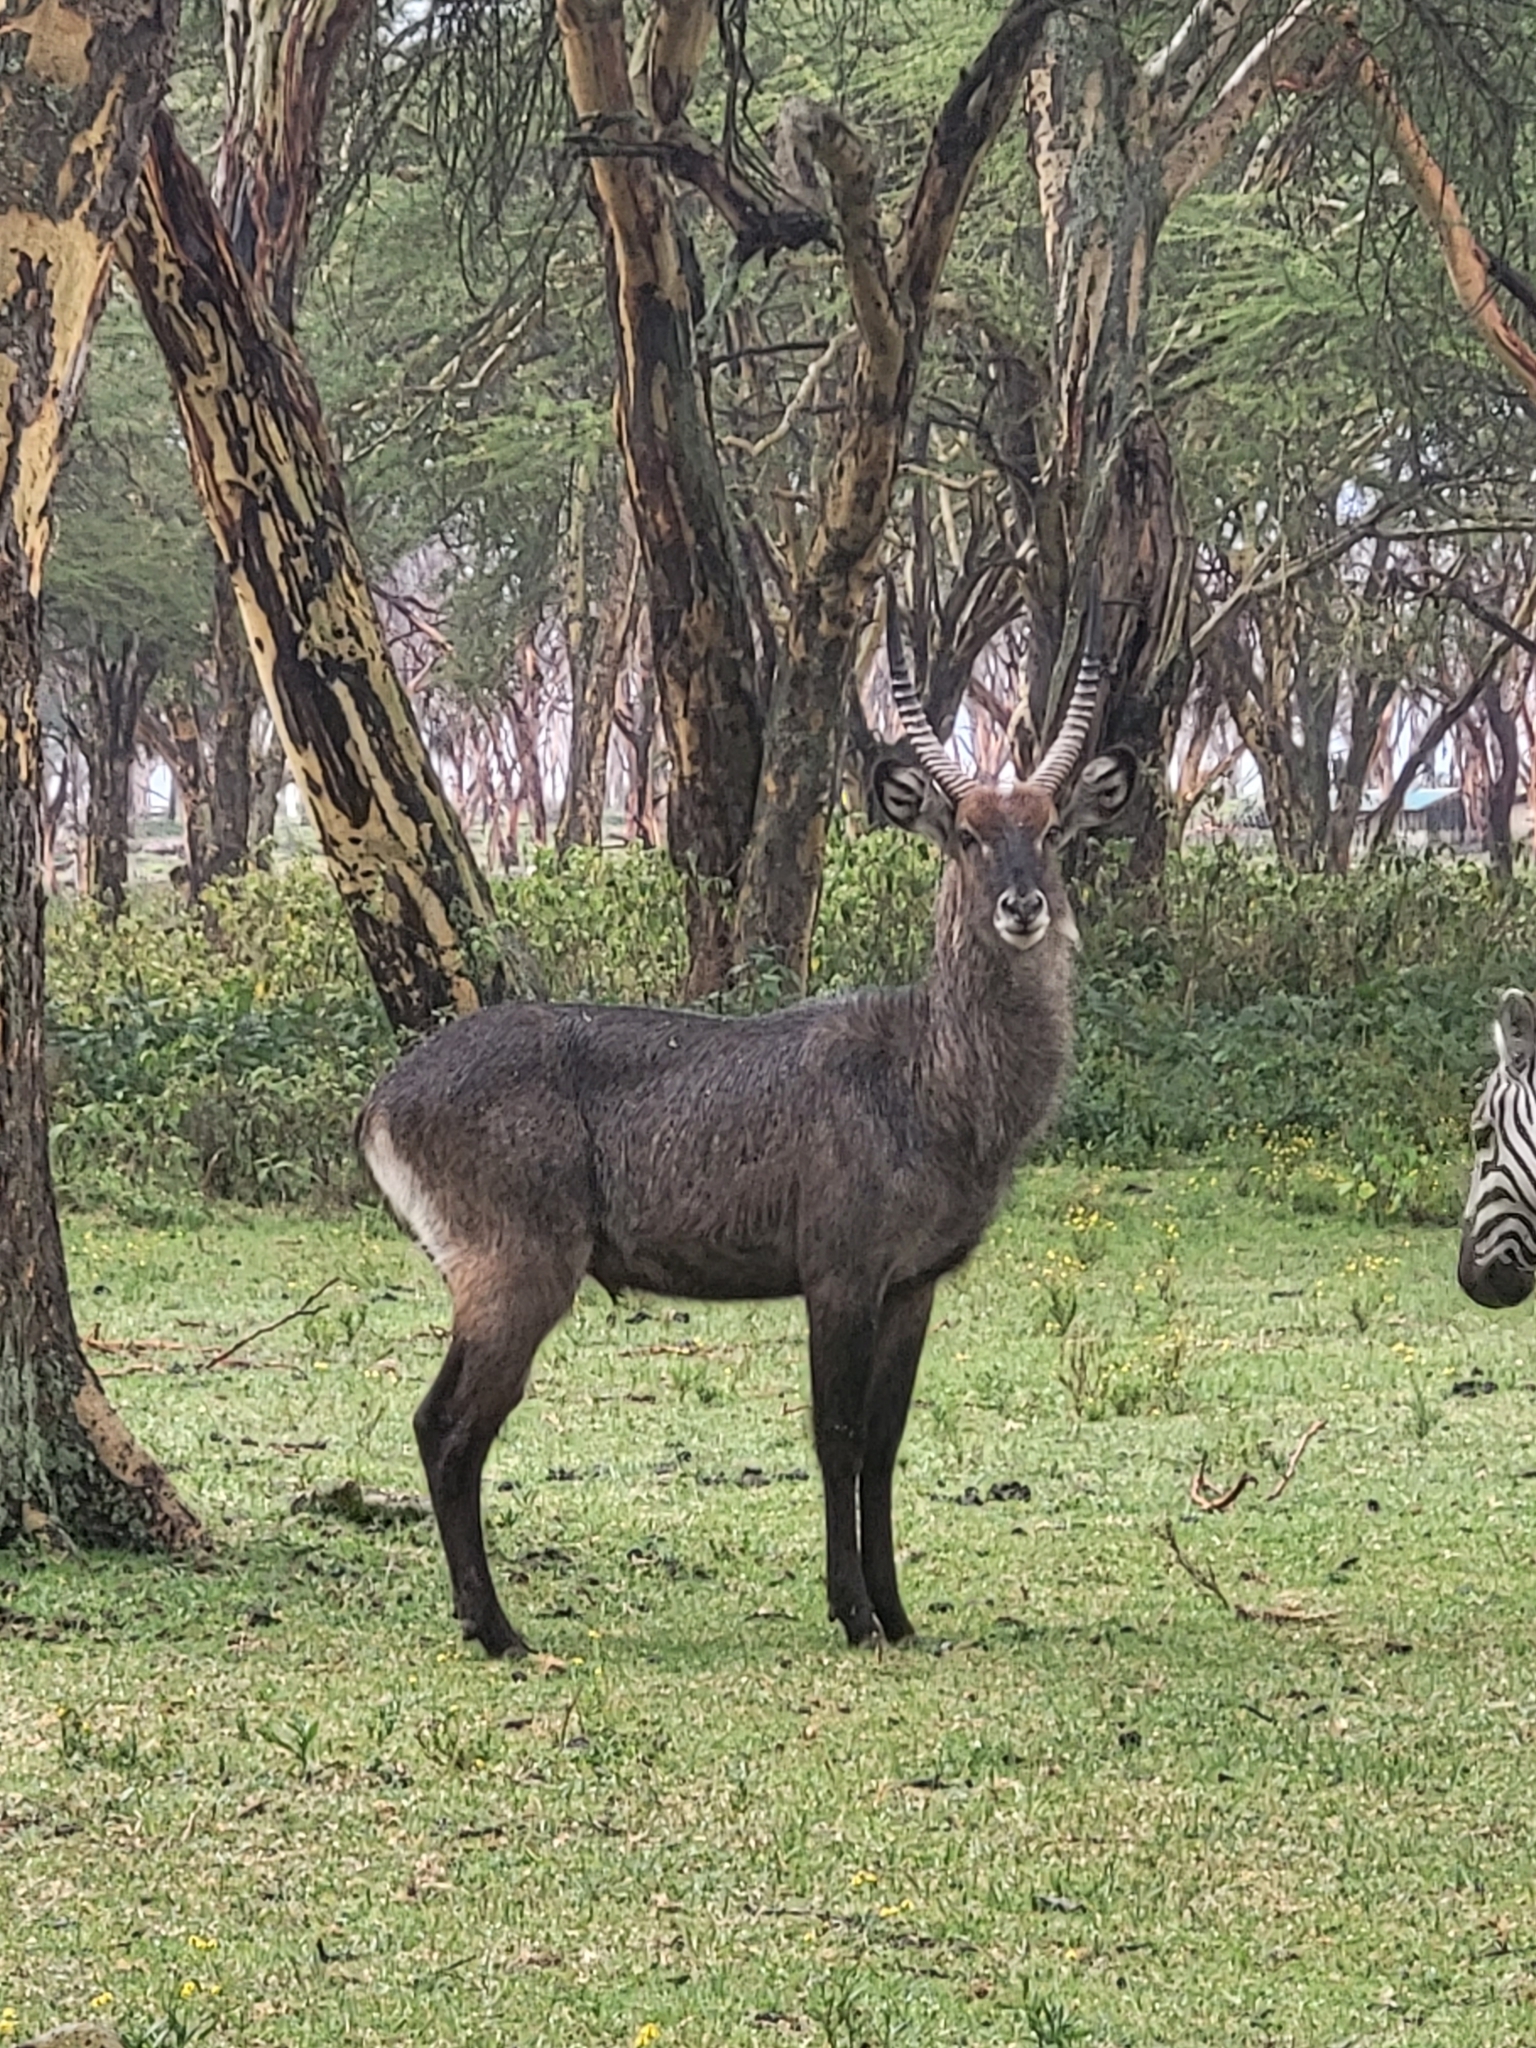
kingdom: Animalia
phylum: Chordata
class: Mammalia
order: Artiodactyla
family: Bovidae
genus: Kobus
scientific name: Kobus ellipsiprymnus
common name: Waterbuck
